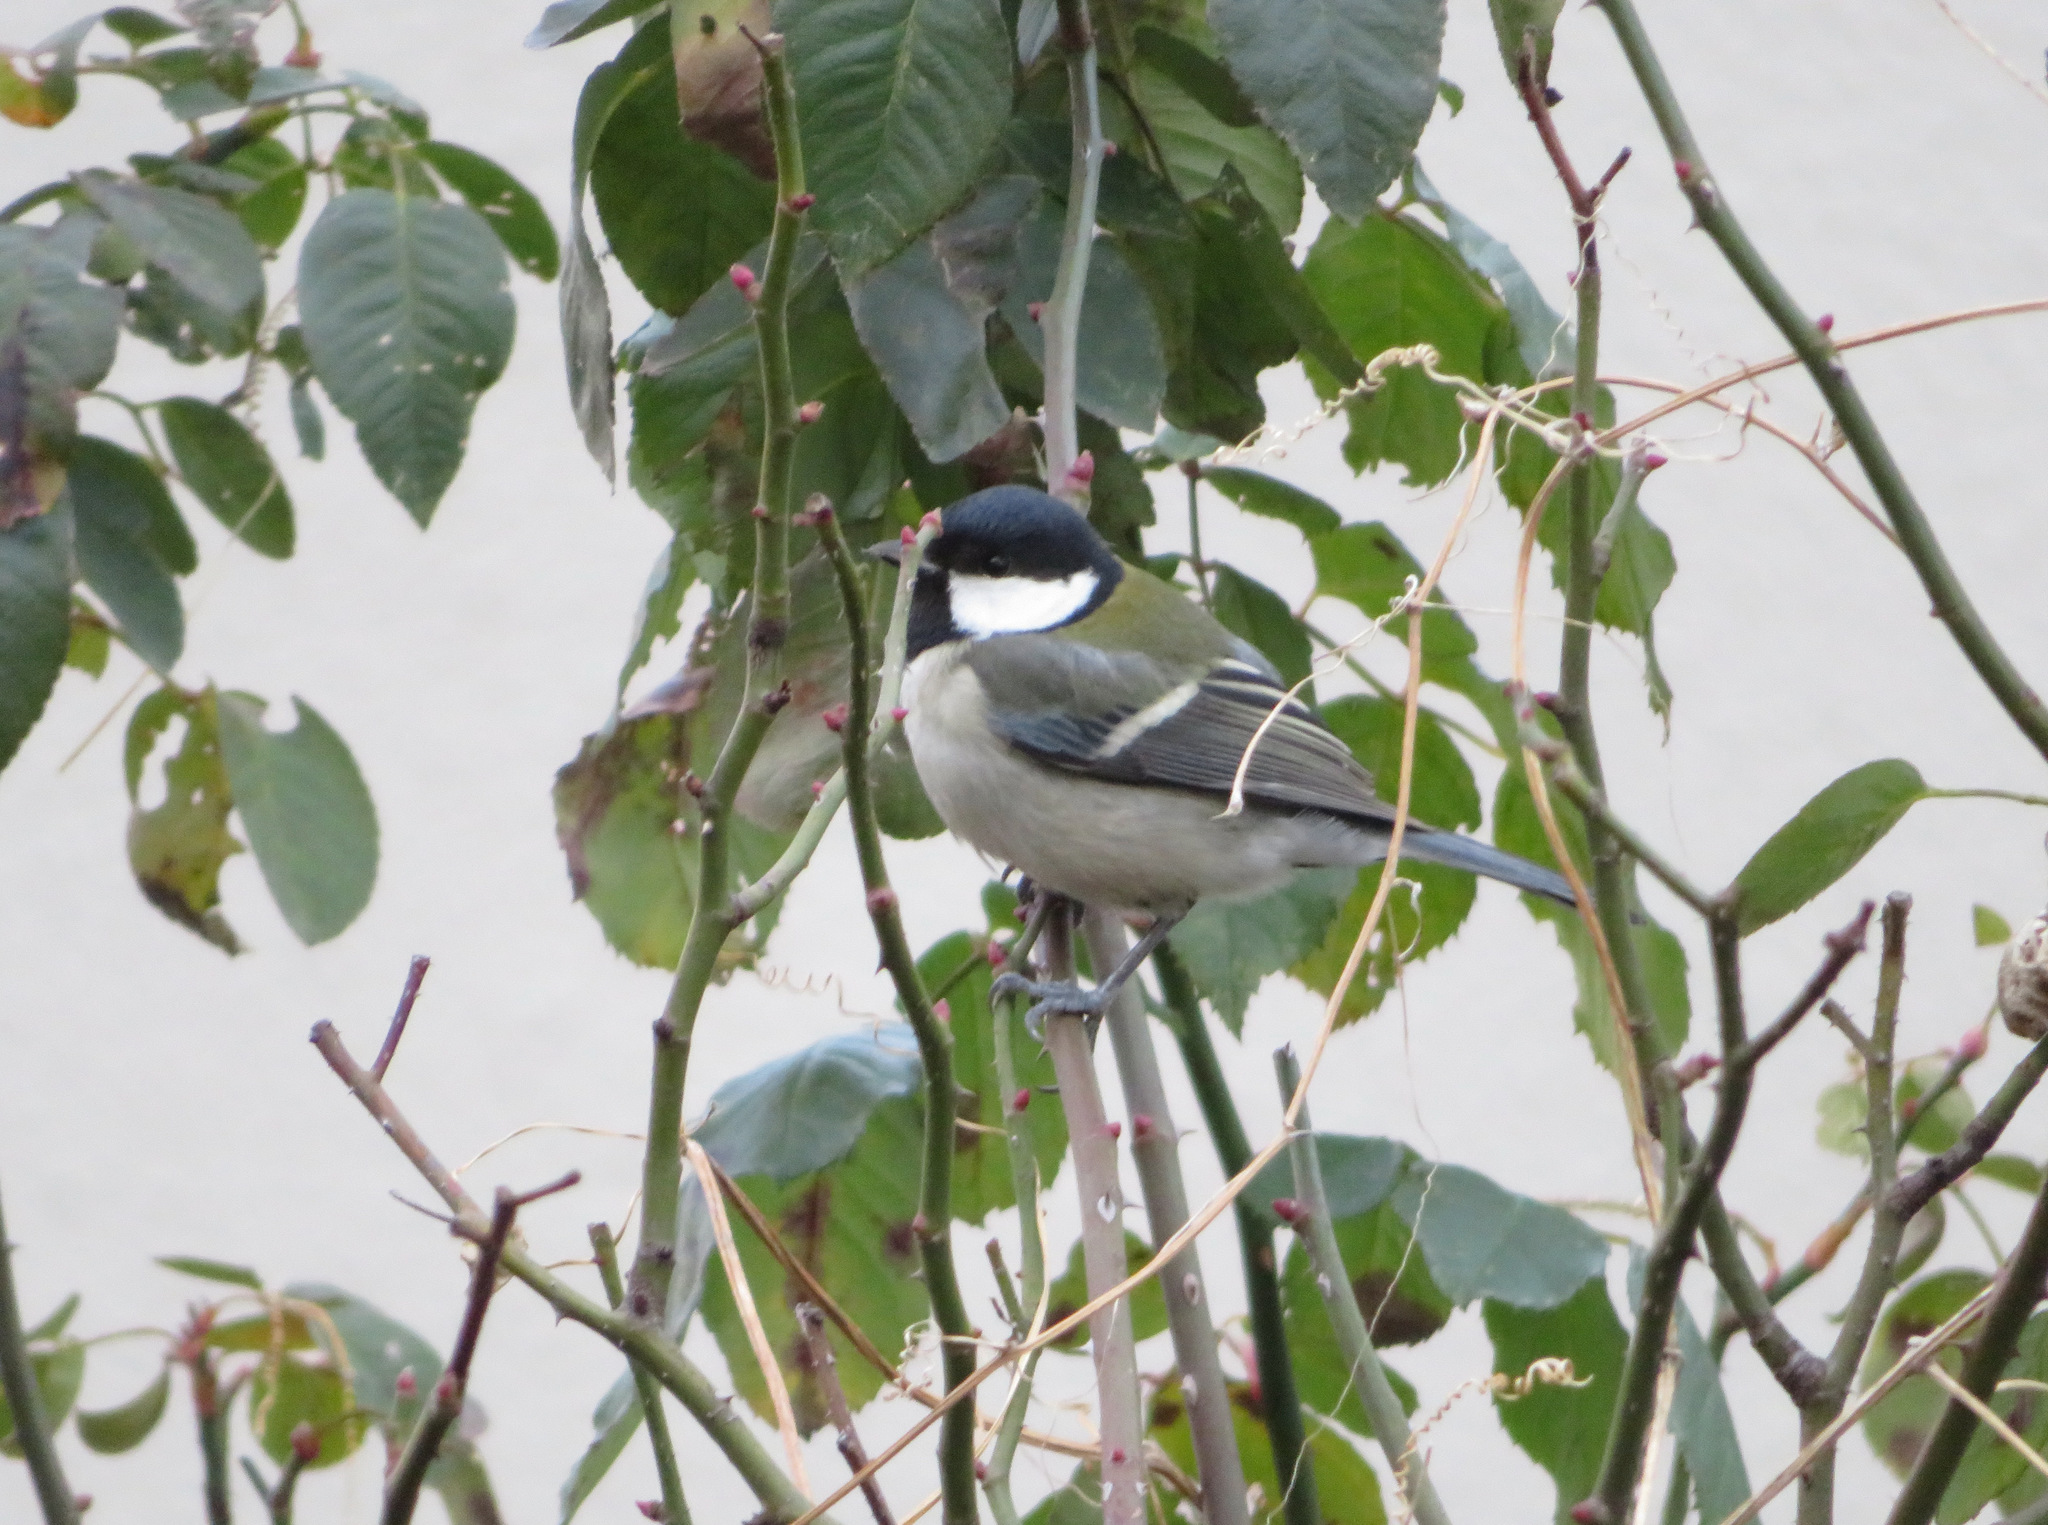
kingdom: Animalia
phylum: Chordata
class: Aves
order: Passeriformes
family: Paridae
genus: Parus
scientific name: Parus minor
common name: Japanese tit
